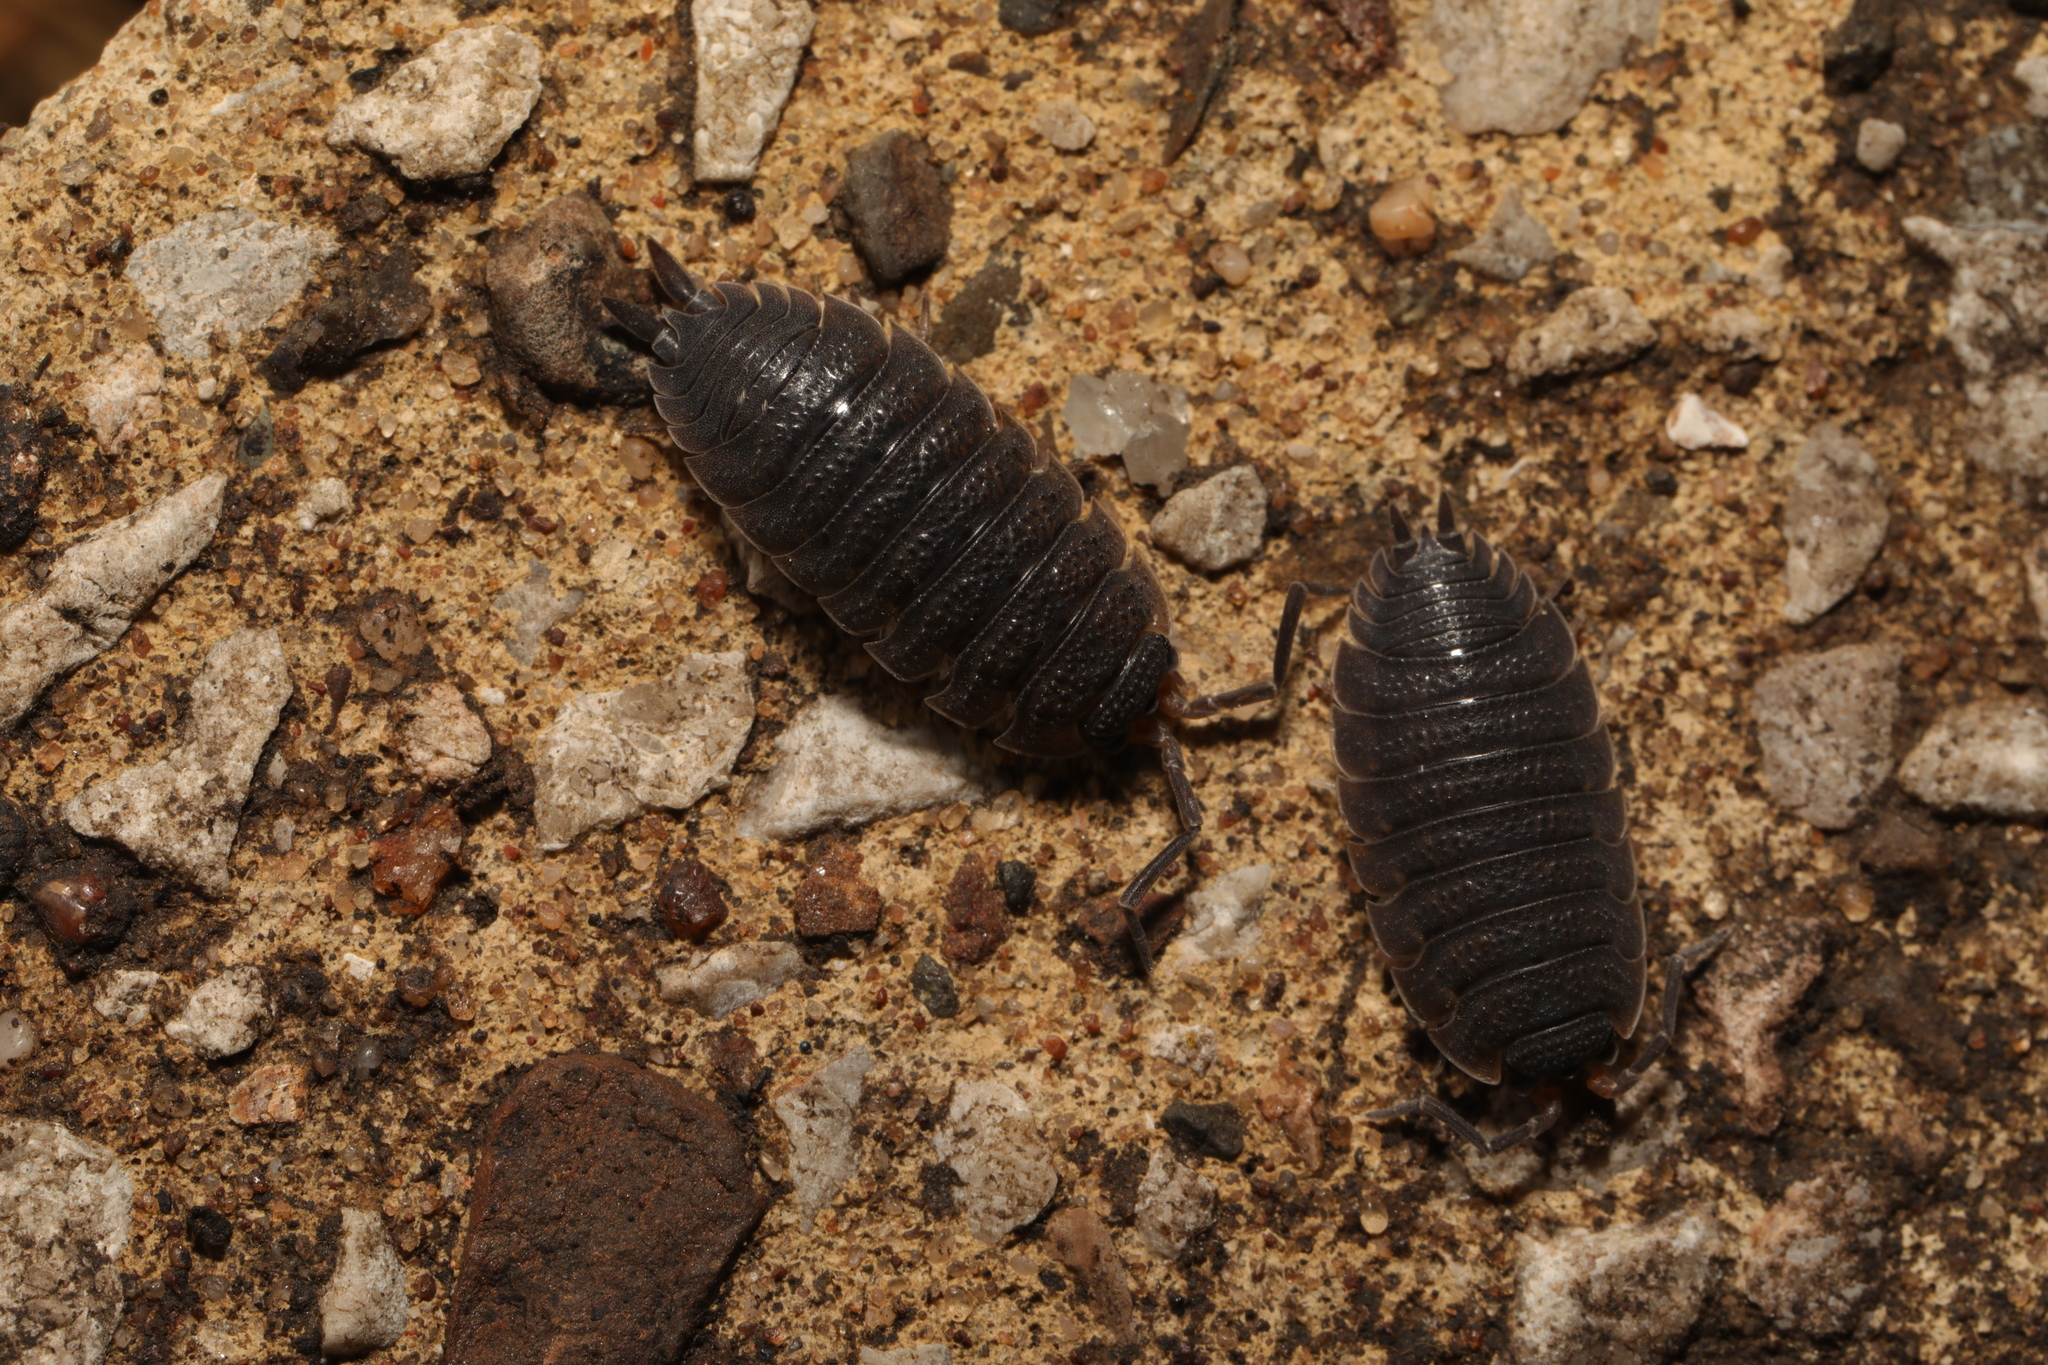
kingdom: Animalia
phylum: Arthropoda
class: Malacostraca
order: Isopoda
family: Porcellionidae
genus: Porcellio
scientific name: Porcellio scaber
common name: Common rough woodlouse
